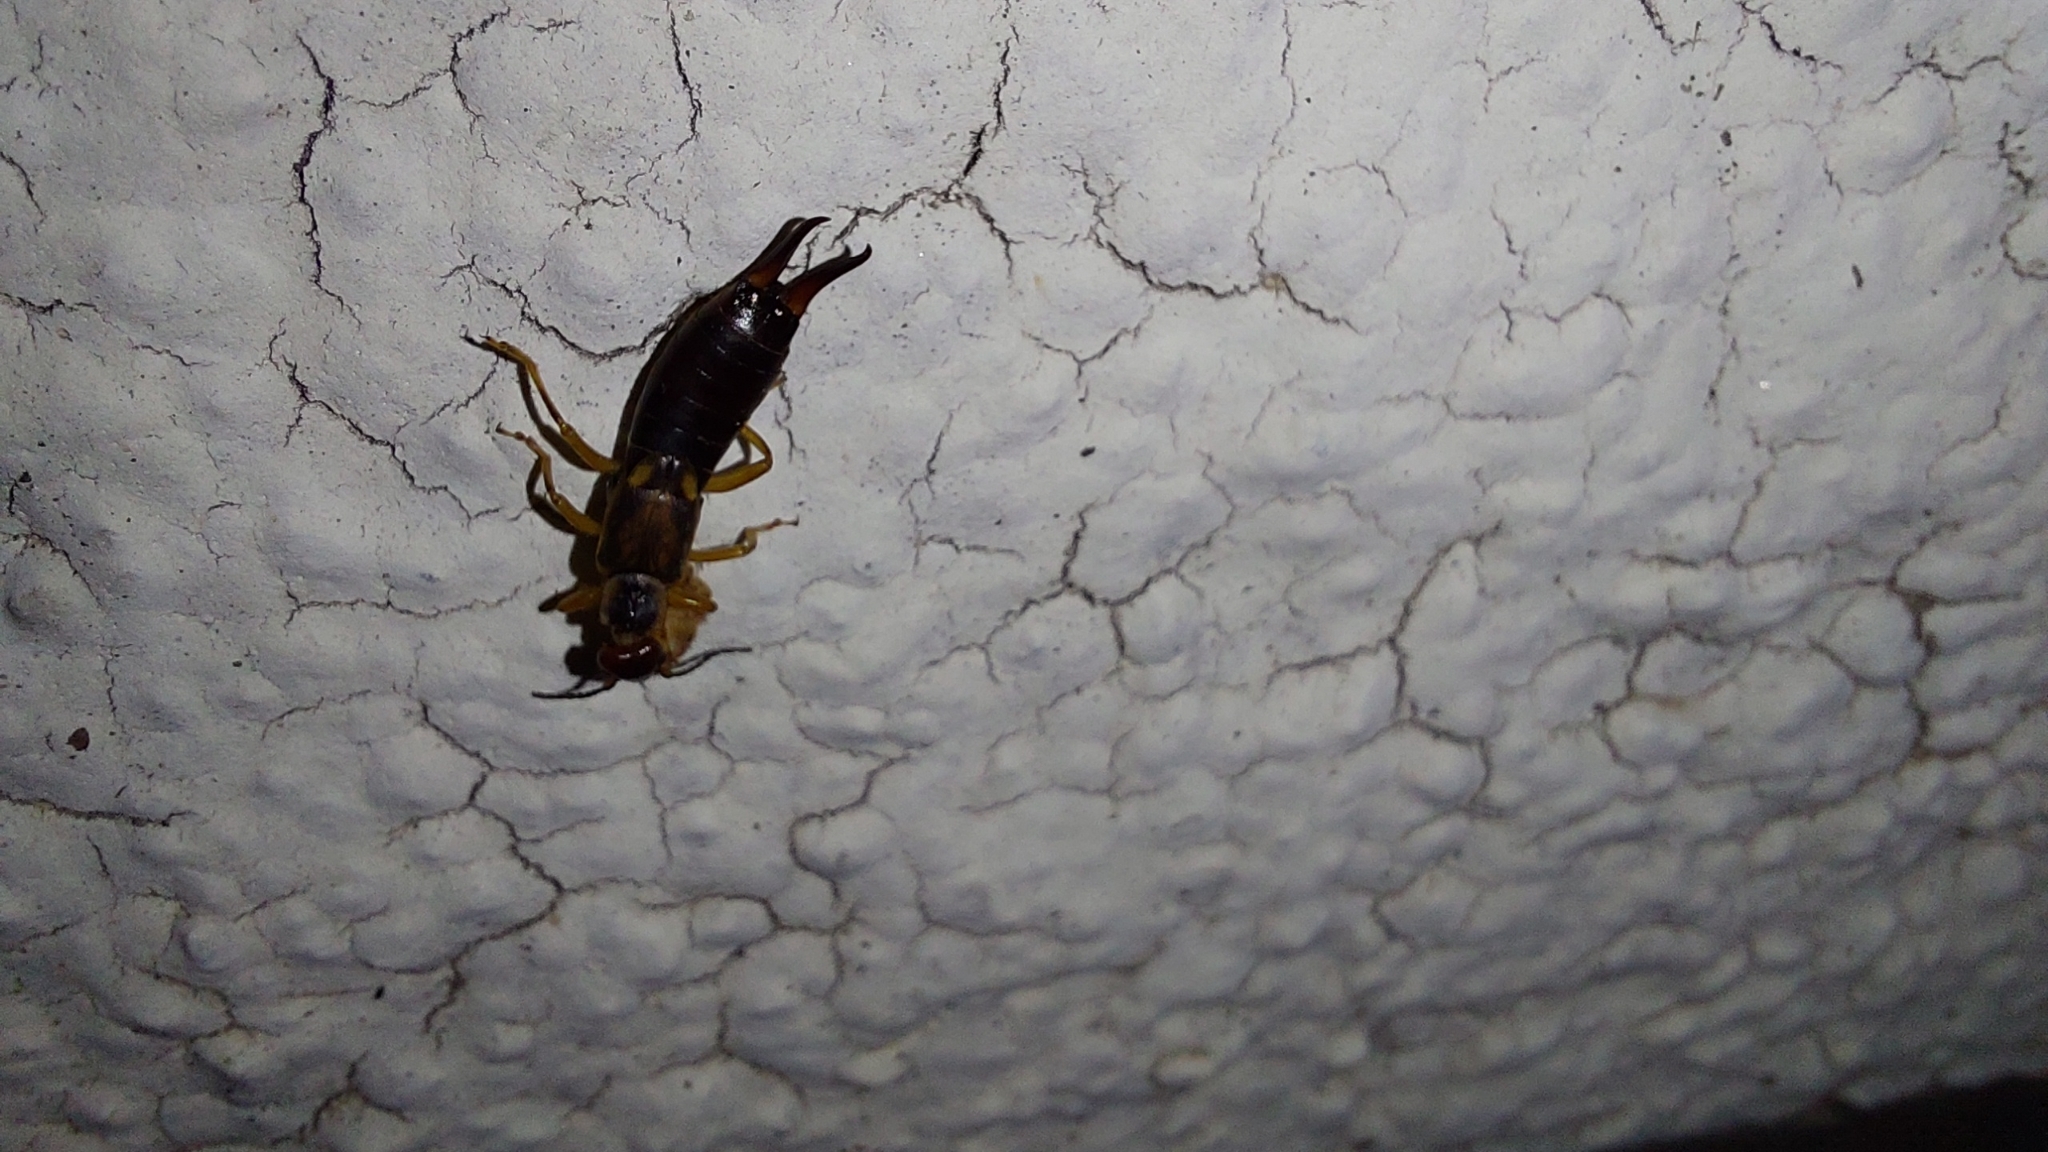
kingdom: Animalia
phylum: Arthropoda
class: Insecta
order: Dermaptera
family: Forficulidae
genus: Forficula
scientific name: Forficula
